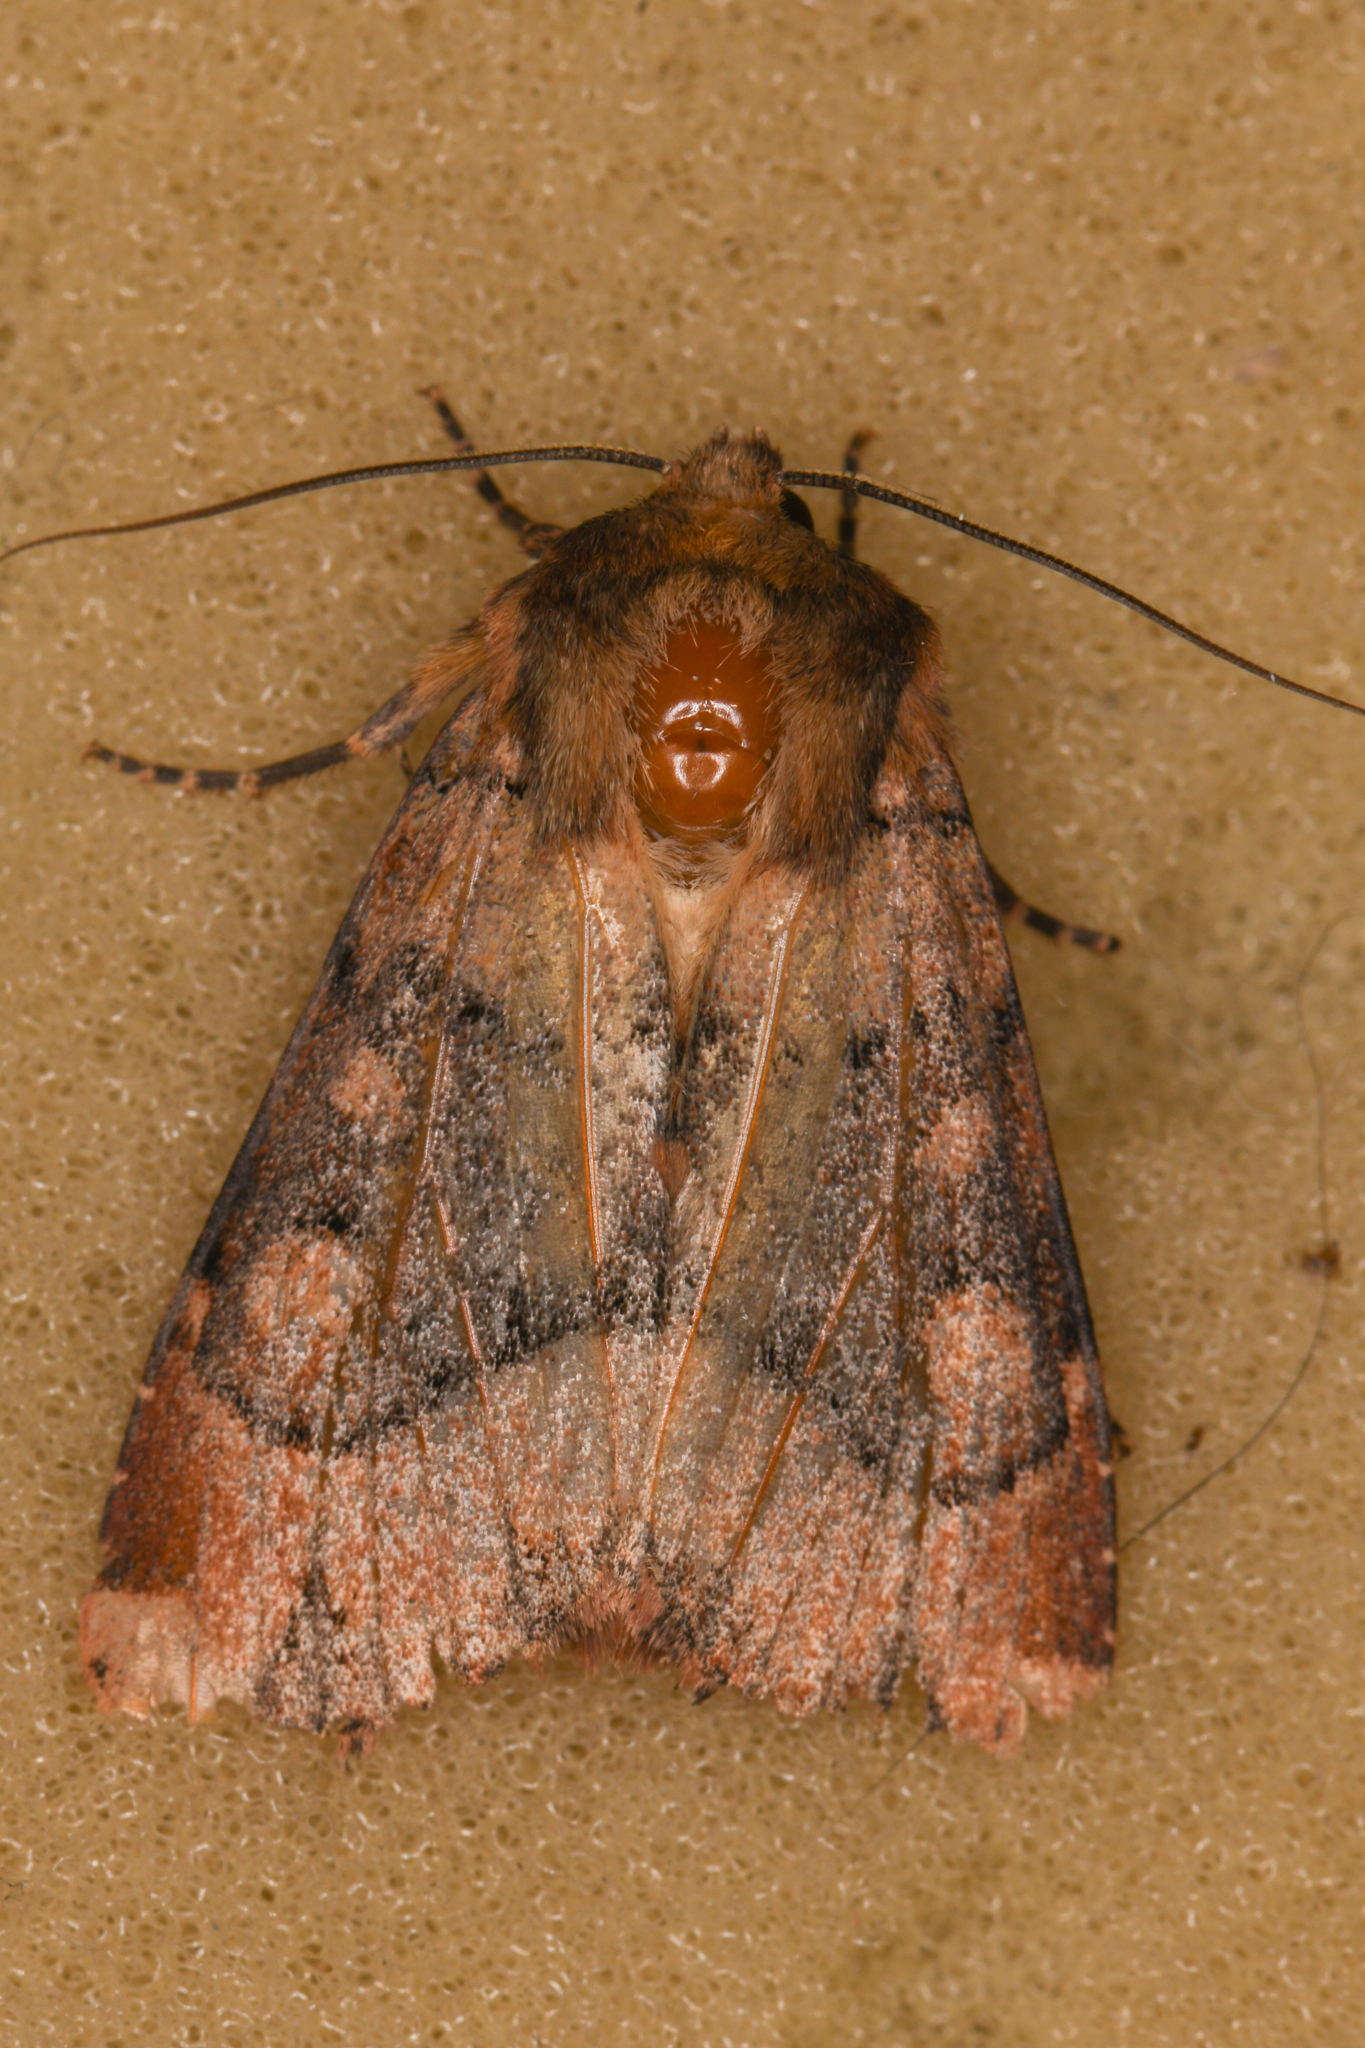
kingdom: Animalia
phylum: Arthropoda
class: Insecta
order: Lepidoptera
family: Noctuidae
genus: Apamea
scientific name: Apamea contradicta
